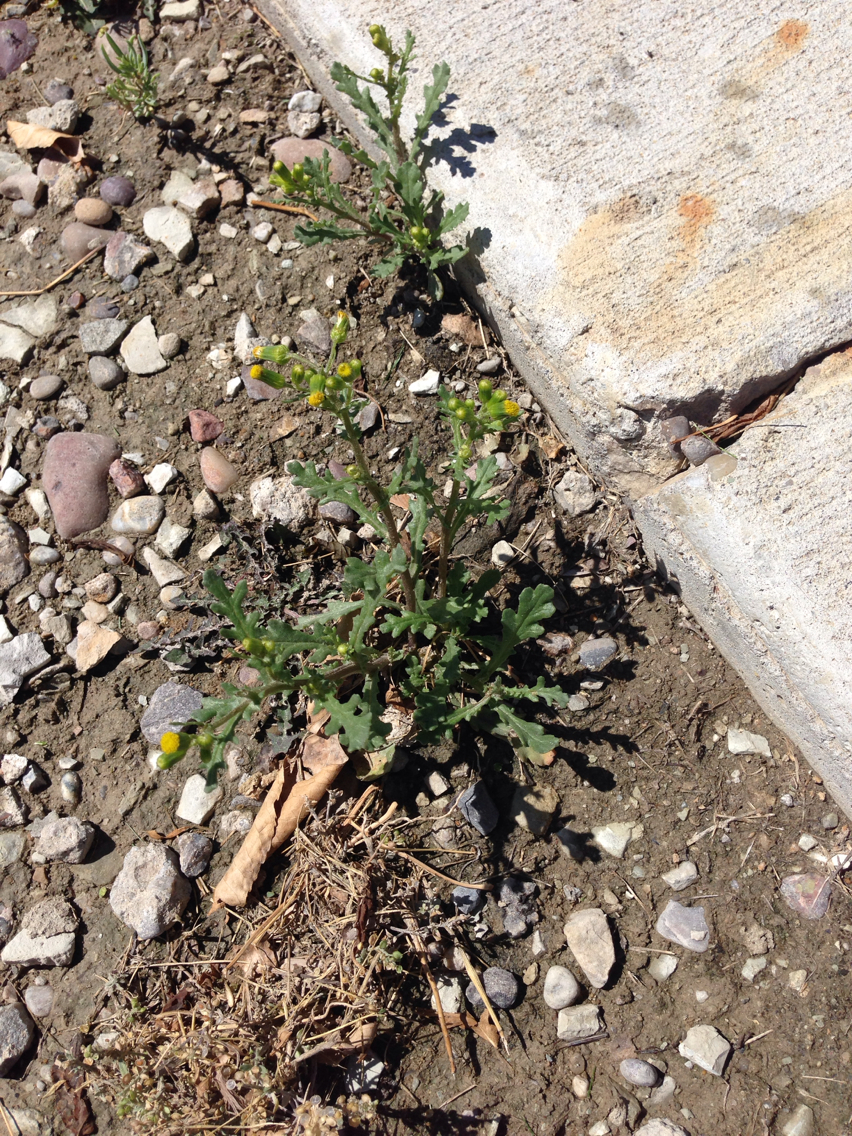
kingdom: Plantae
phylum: Tracheophyta
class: Magnoliopsida
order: Asterales
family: Asteraceae
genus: Senecio
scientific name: Senecio vulgaris
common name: Old-man-in-the-spring
